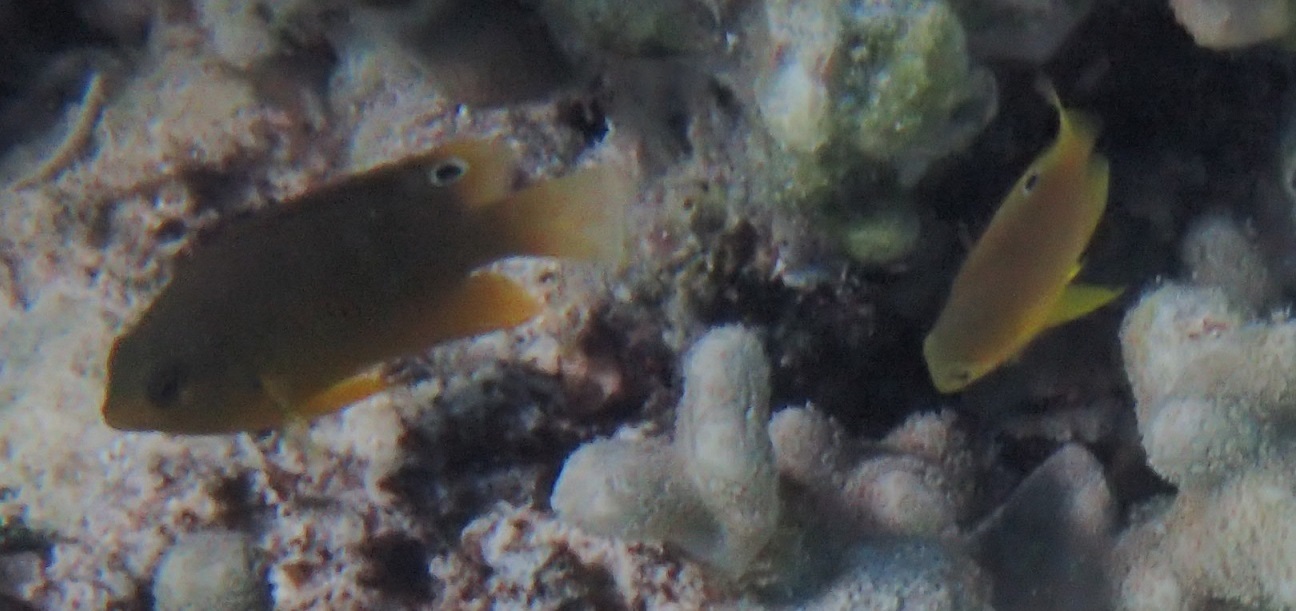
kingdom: Animalia
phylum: Chordata
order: Perciformes
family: Pomacentridae
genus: Pomacentrus
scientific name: Pomacentrus amboinensis
